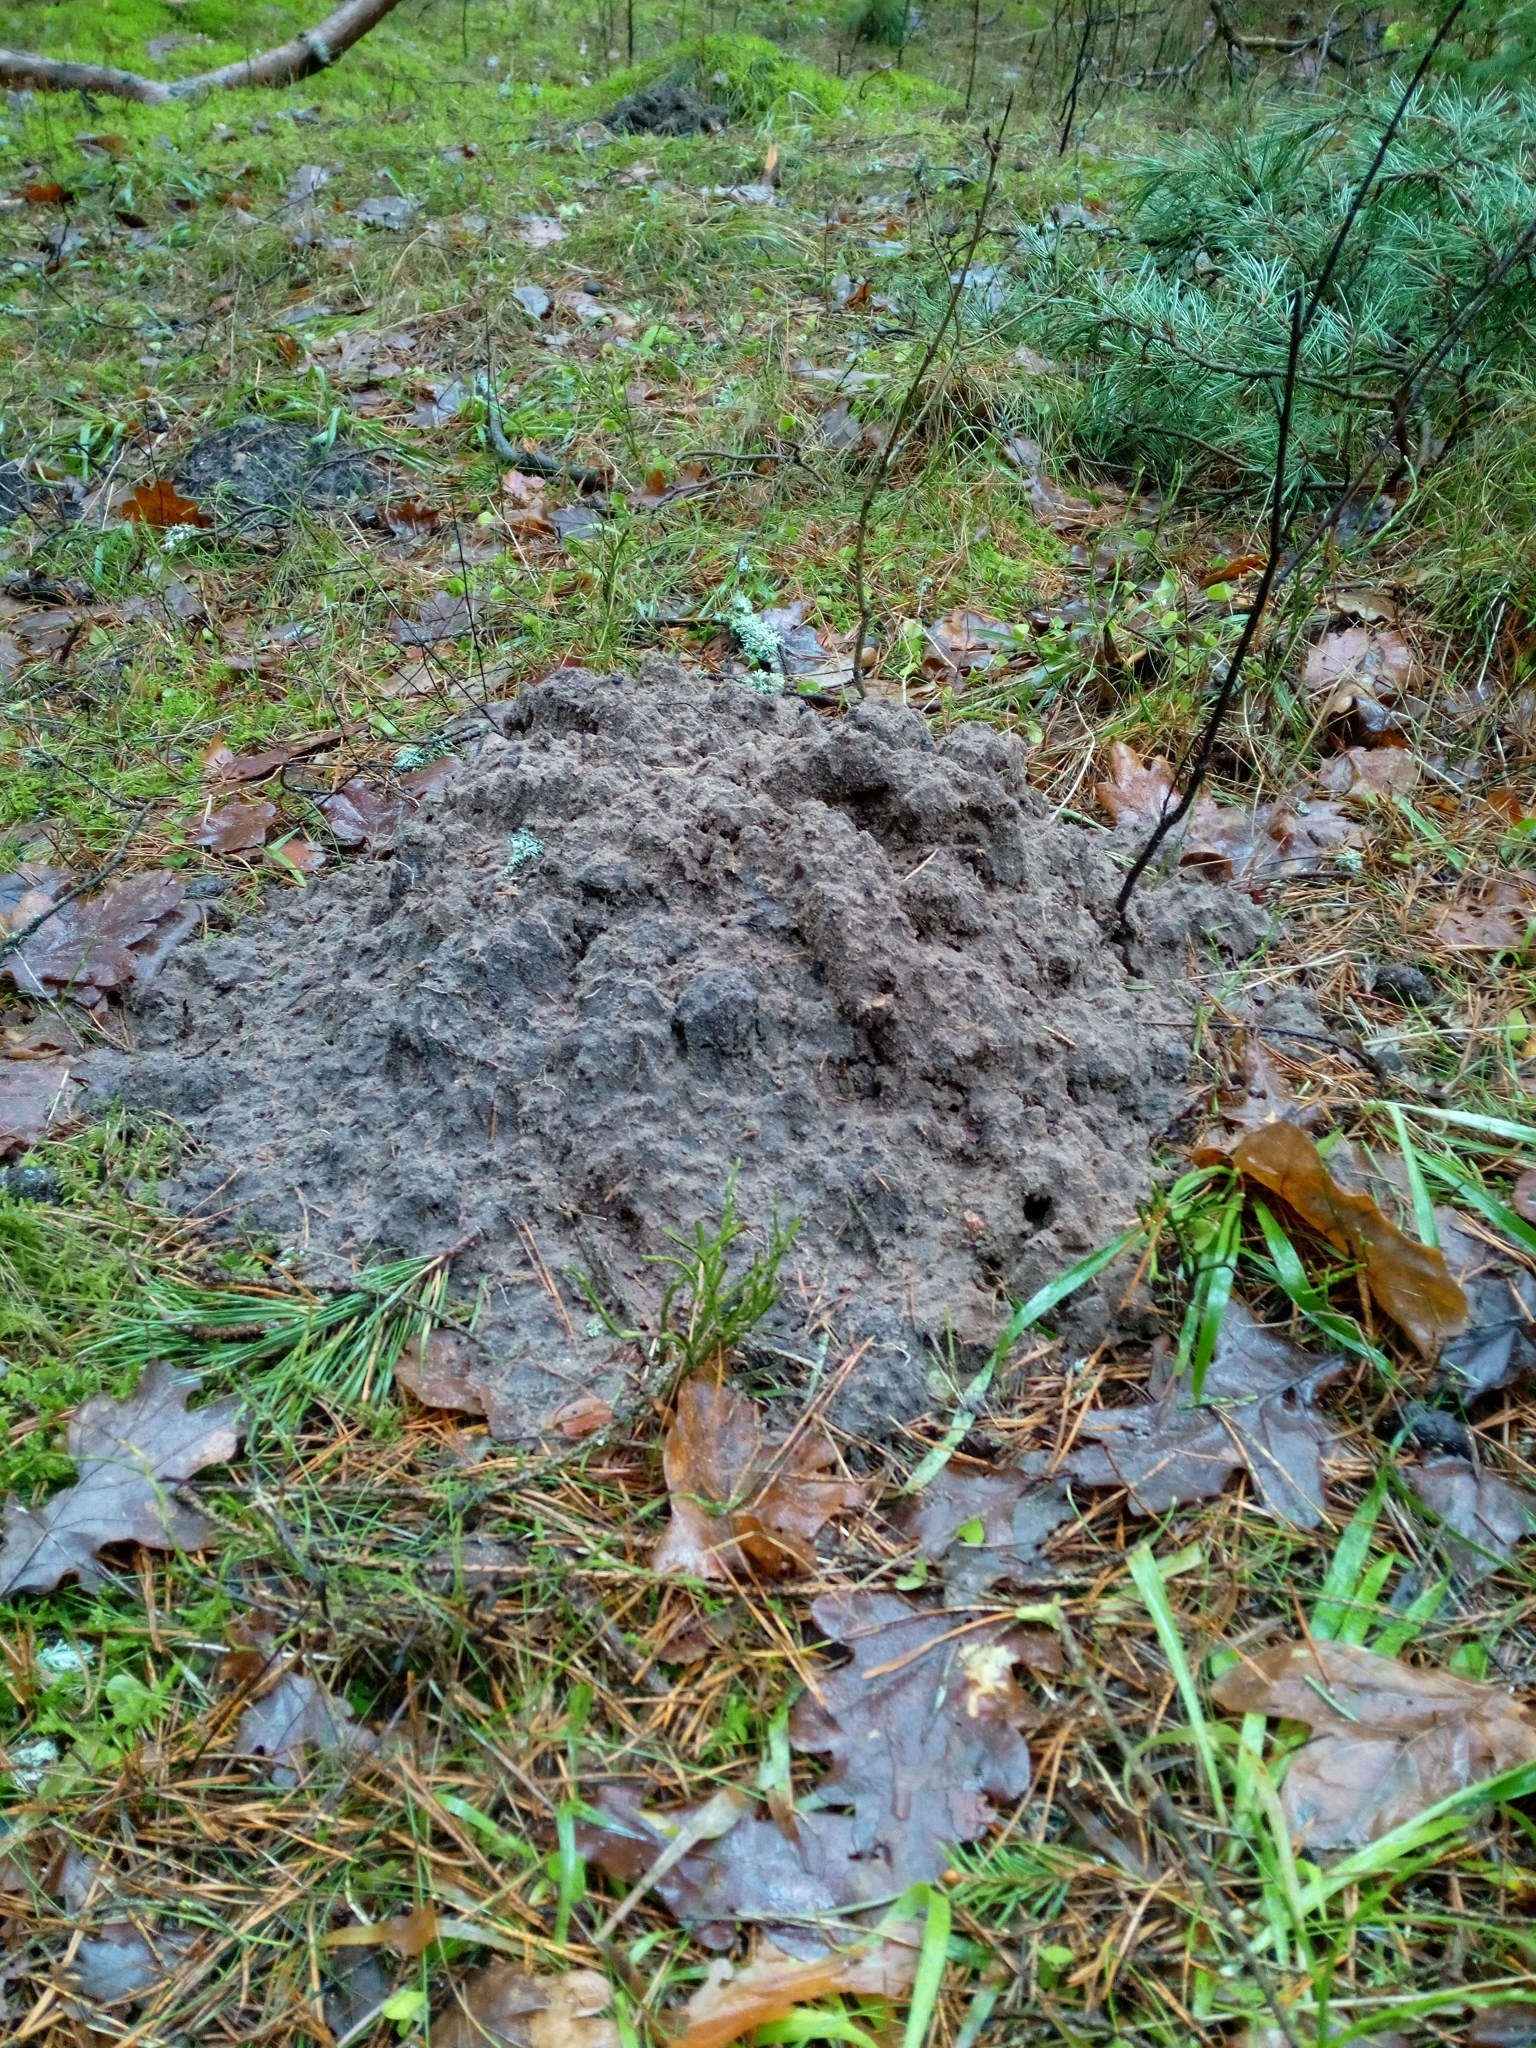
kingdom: Animalia
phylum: Chordata
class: Mammalia
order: Soricomorpha
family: Talpidae
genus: Talpa
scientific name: Talpa europaea
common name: European mole
